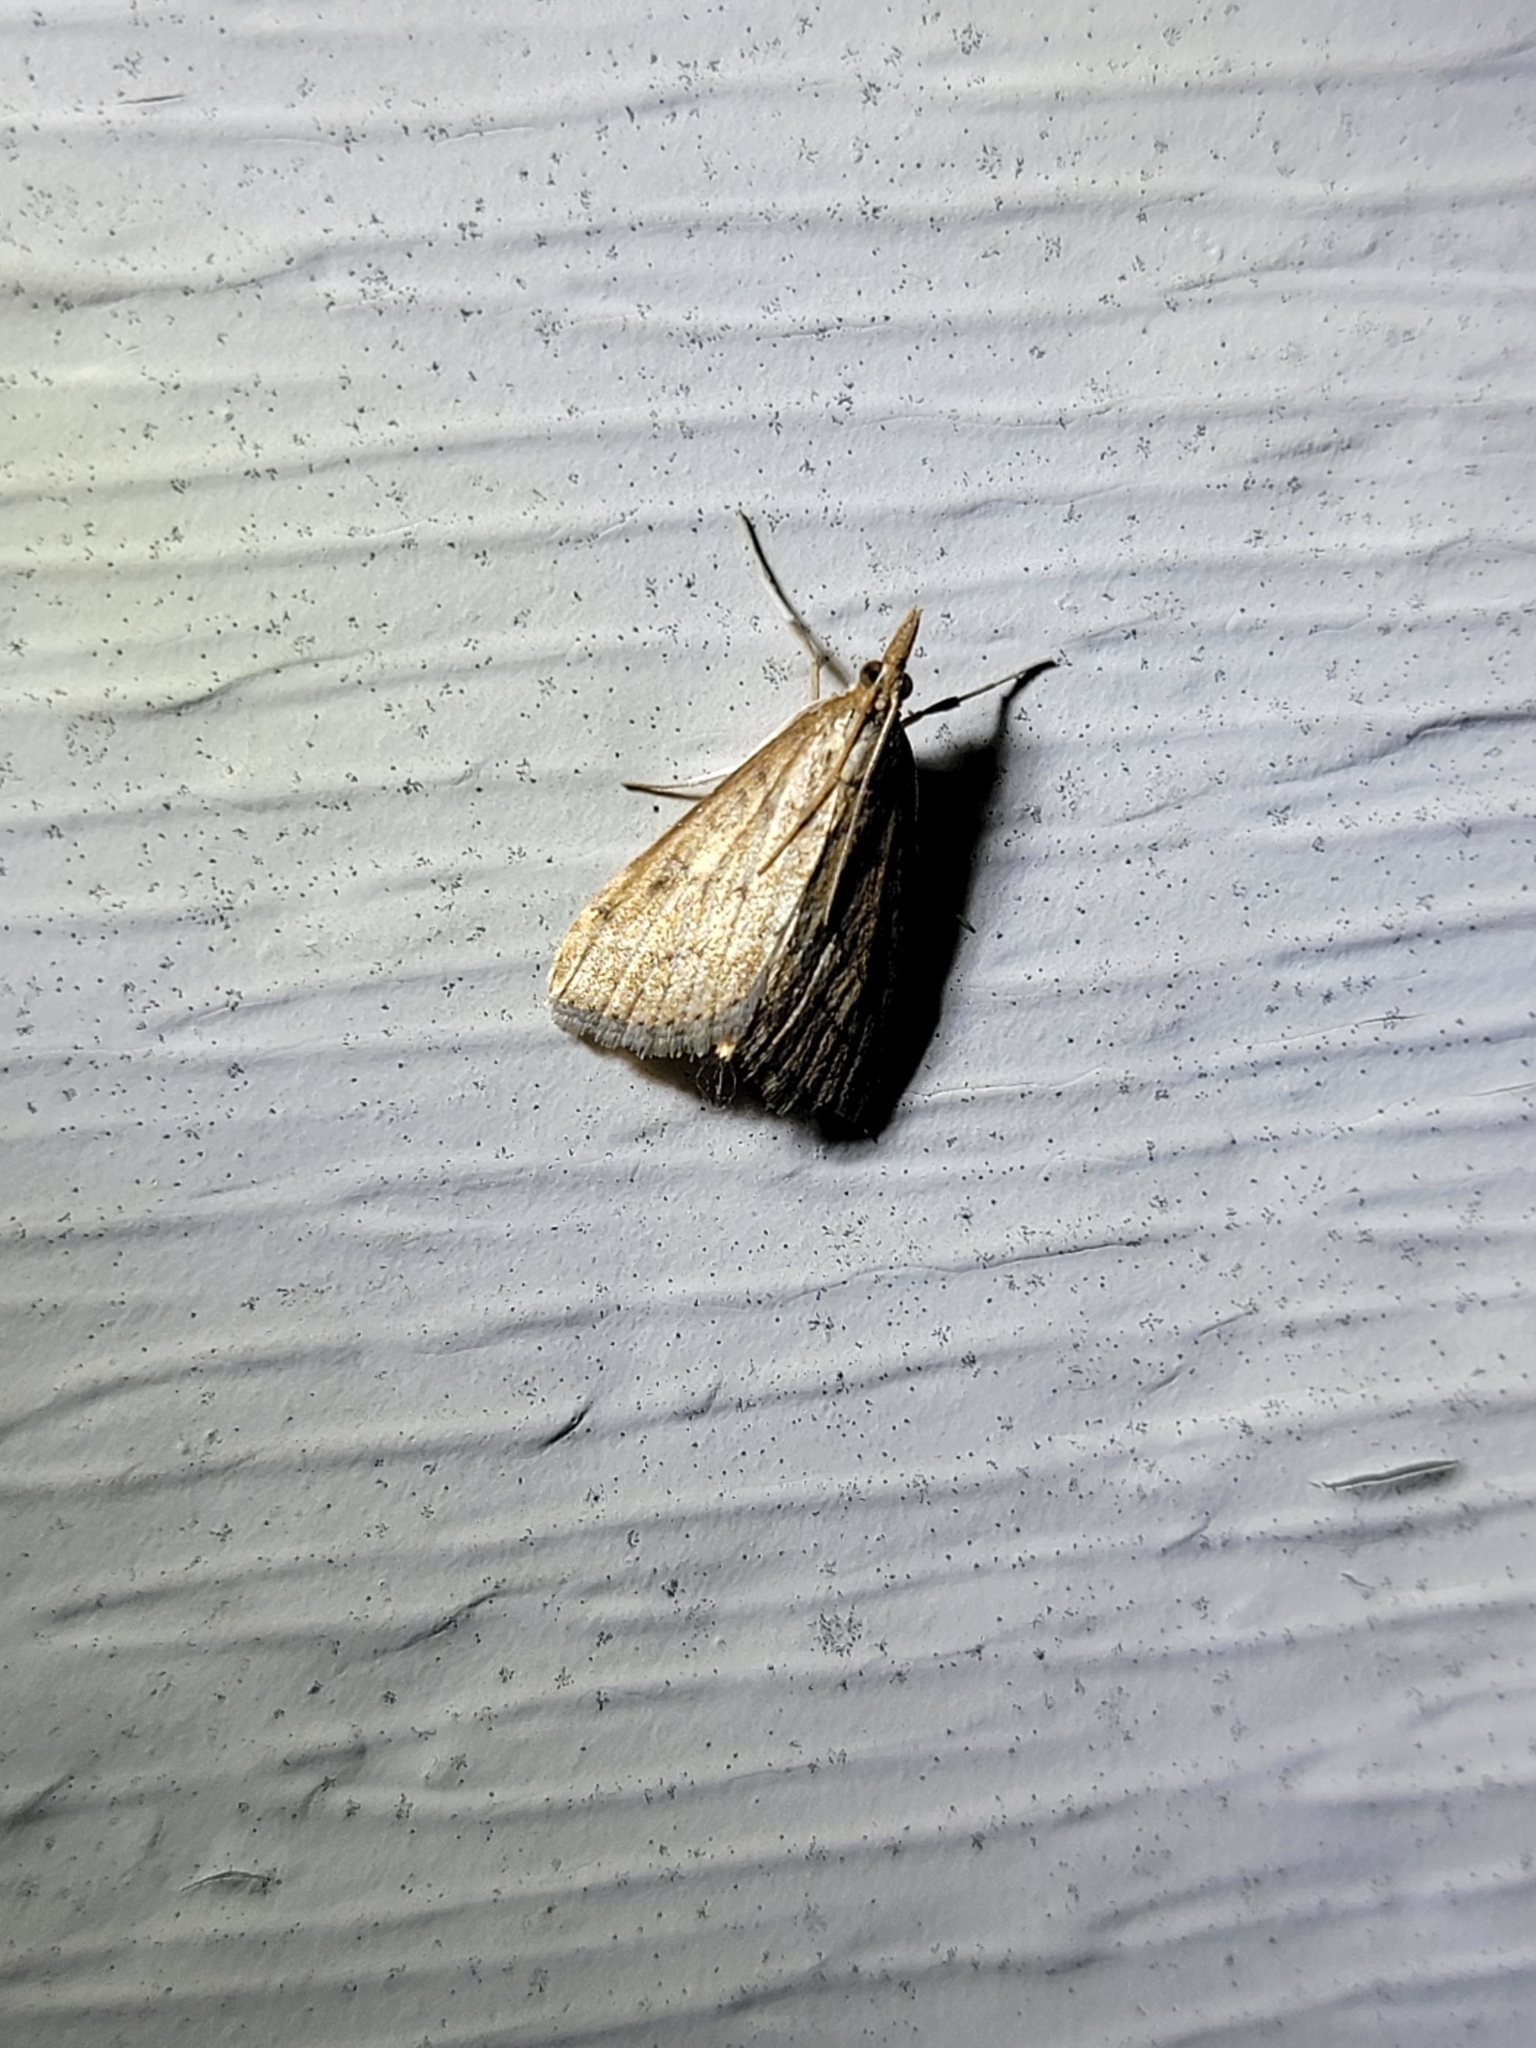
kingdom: Animalia
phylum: Arthropoda
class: Insecta
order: Lepidoptera
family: Crambidae
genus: Udea
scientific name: Udea rubigalis
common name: Celery leaftier moth
